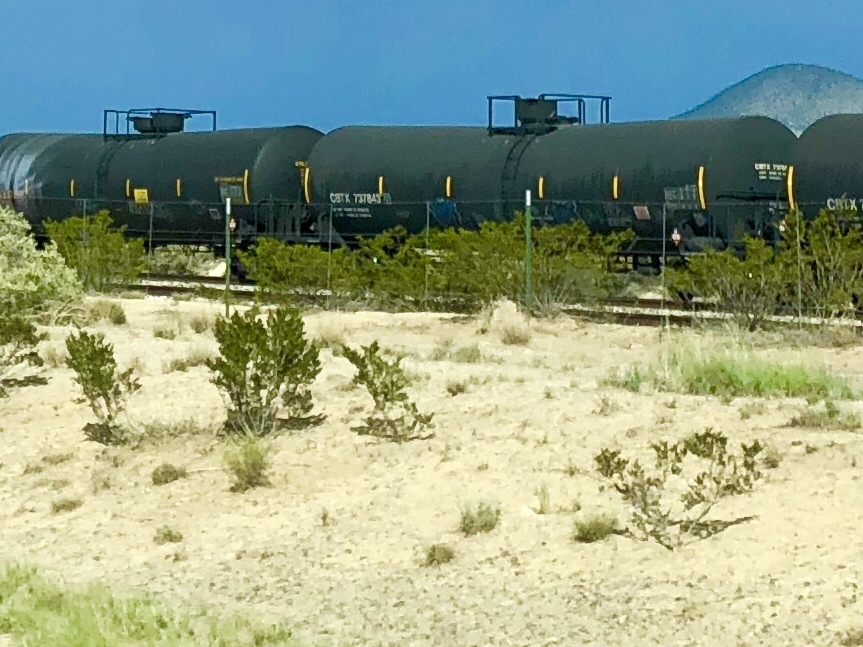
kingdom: Plantae
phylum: Tracheophyta
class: Magnoliopsida
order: Zygophyllales
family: Zygophyllaceae
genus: Larrea
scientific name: Larrea tridentata
